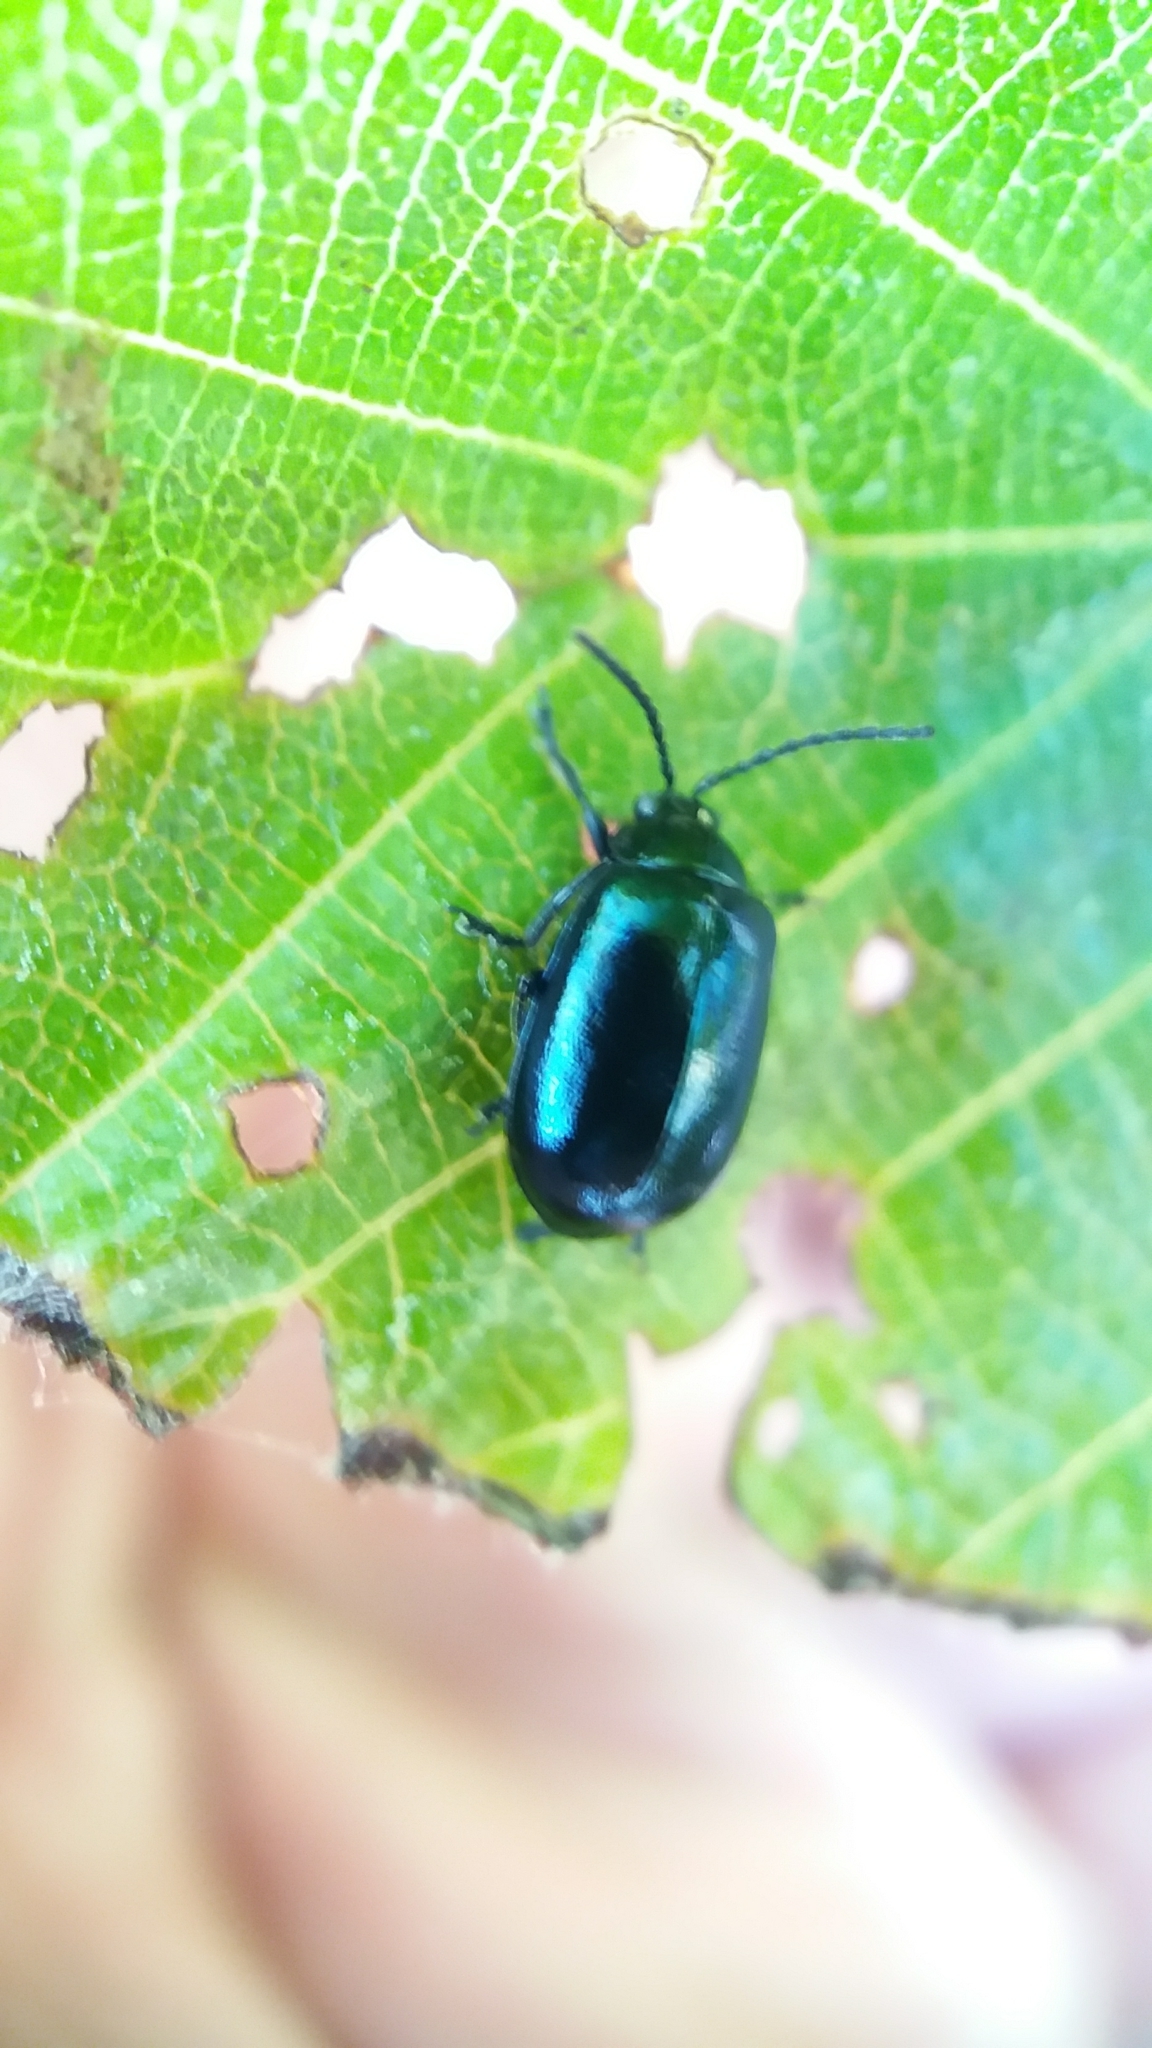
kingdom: Animalia
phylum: Arthropoda
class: Insecta
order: Coleoptera
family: Chrysomelidae
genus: Agelastica
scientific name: Agelastica alni
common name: Alder leaf beetle
